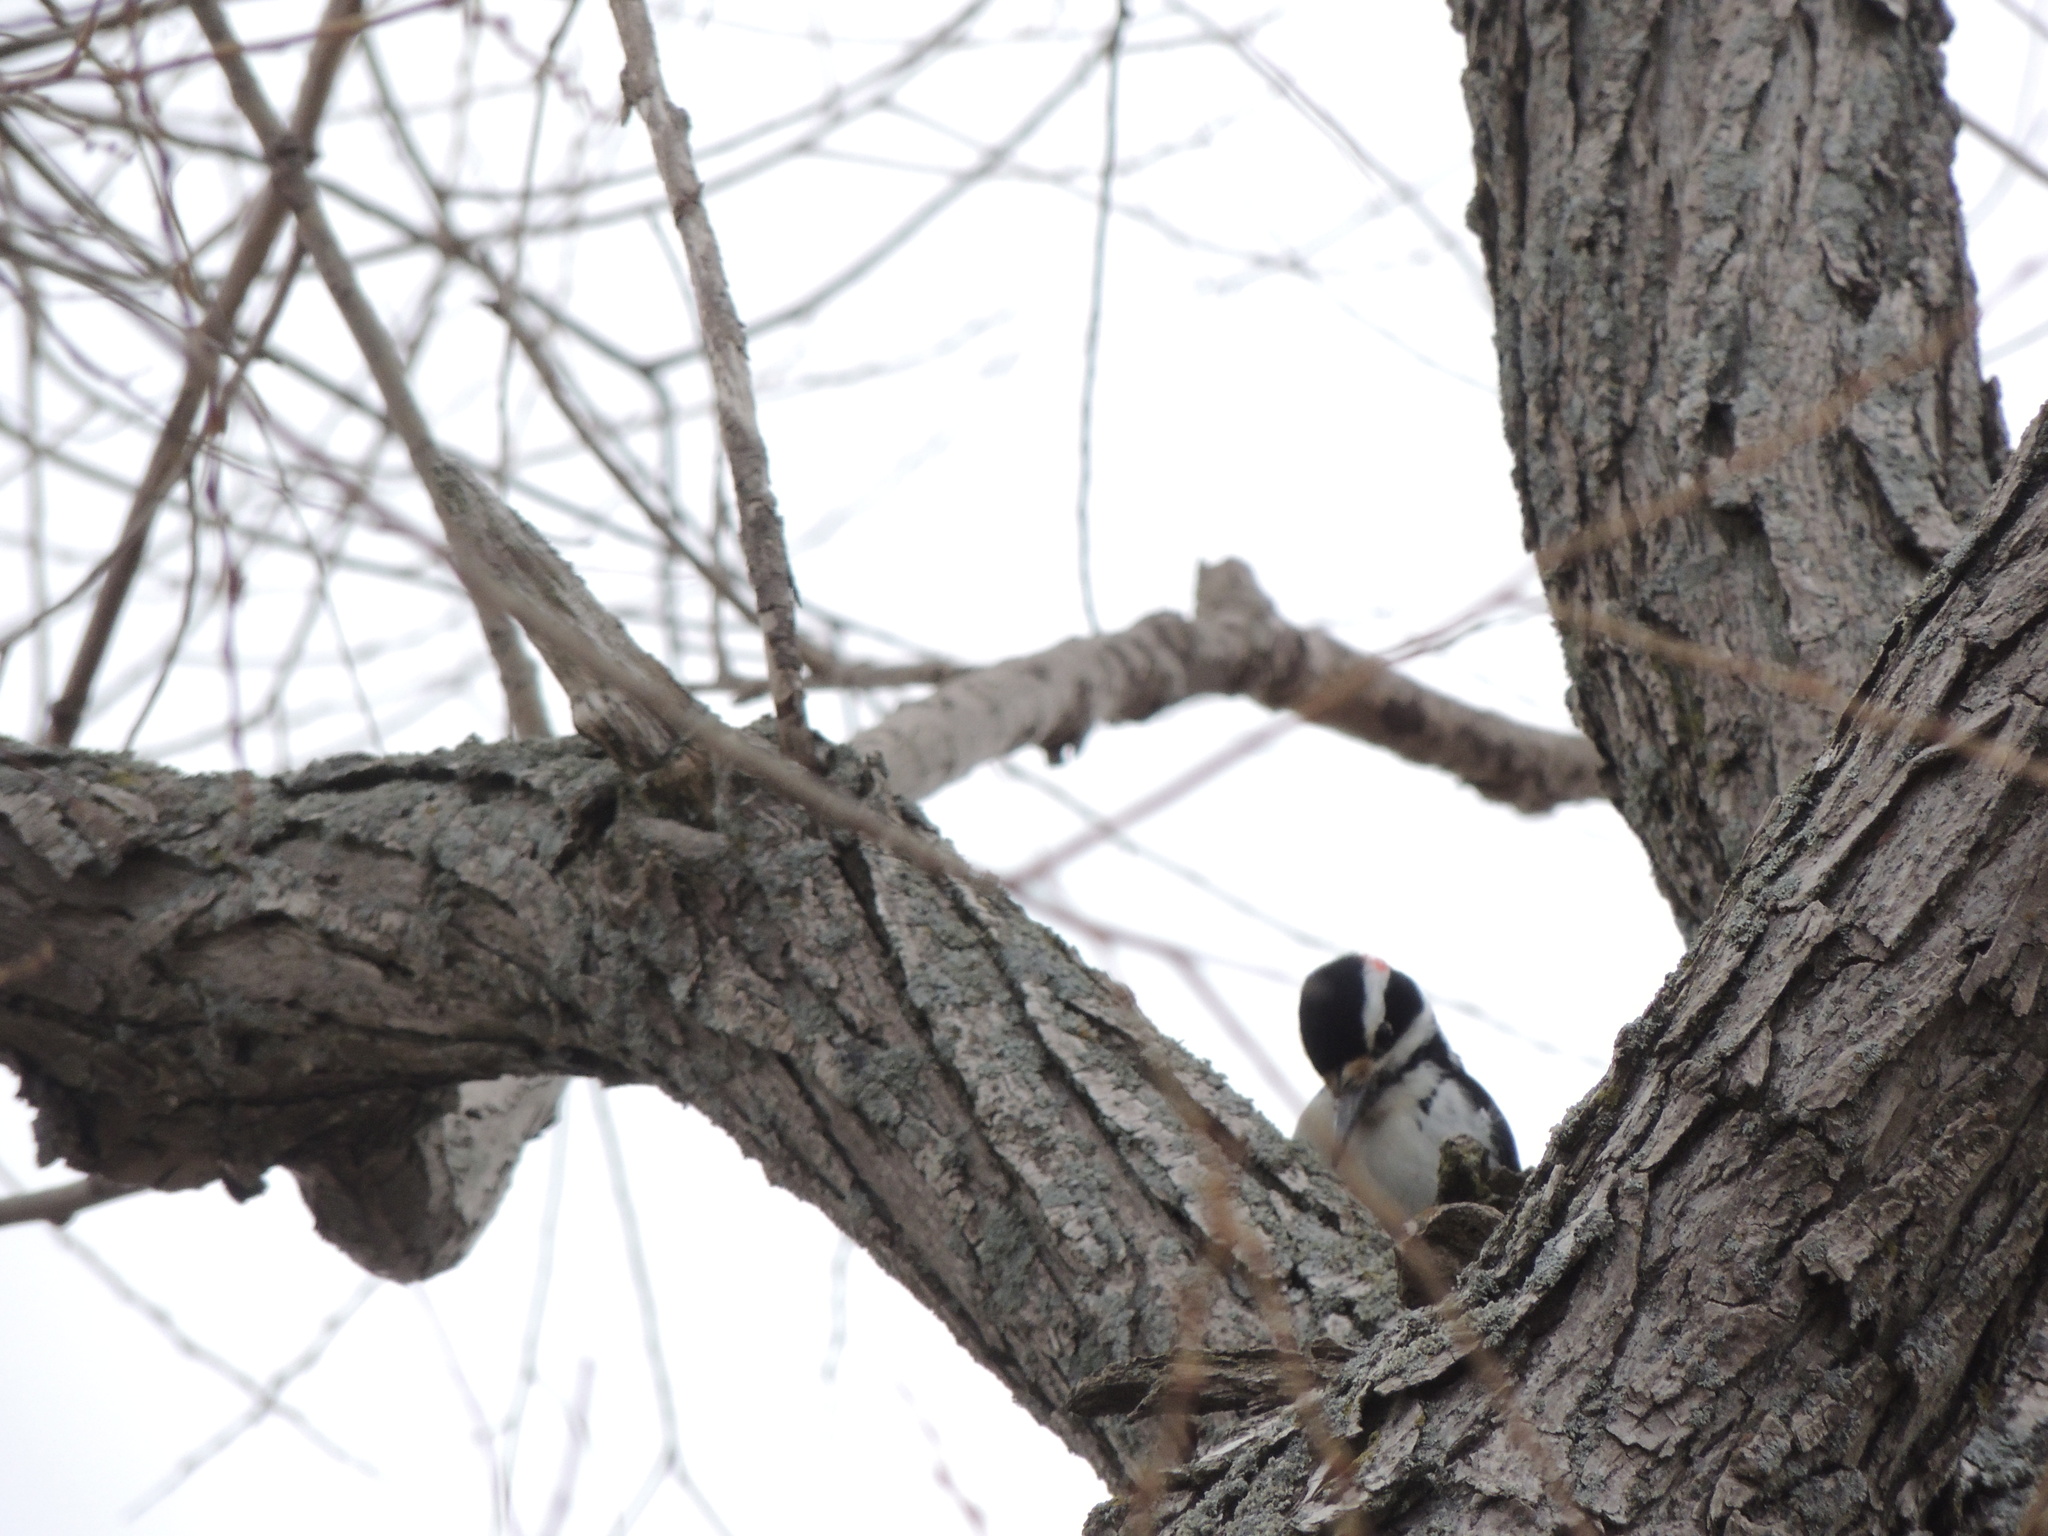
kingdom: Animalia
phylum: Chordata
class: Aves
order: Piciformes
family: Picidae
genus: Leuconotopicus
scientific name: Leuconotopicus villosus
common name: Hairy woodpecker
